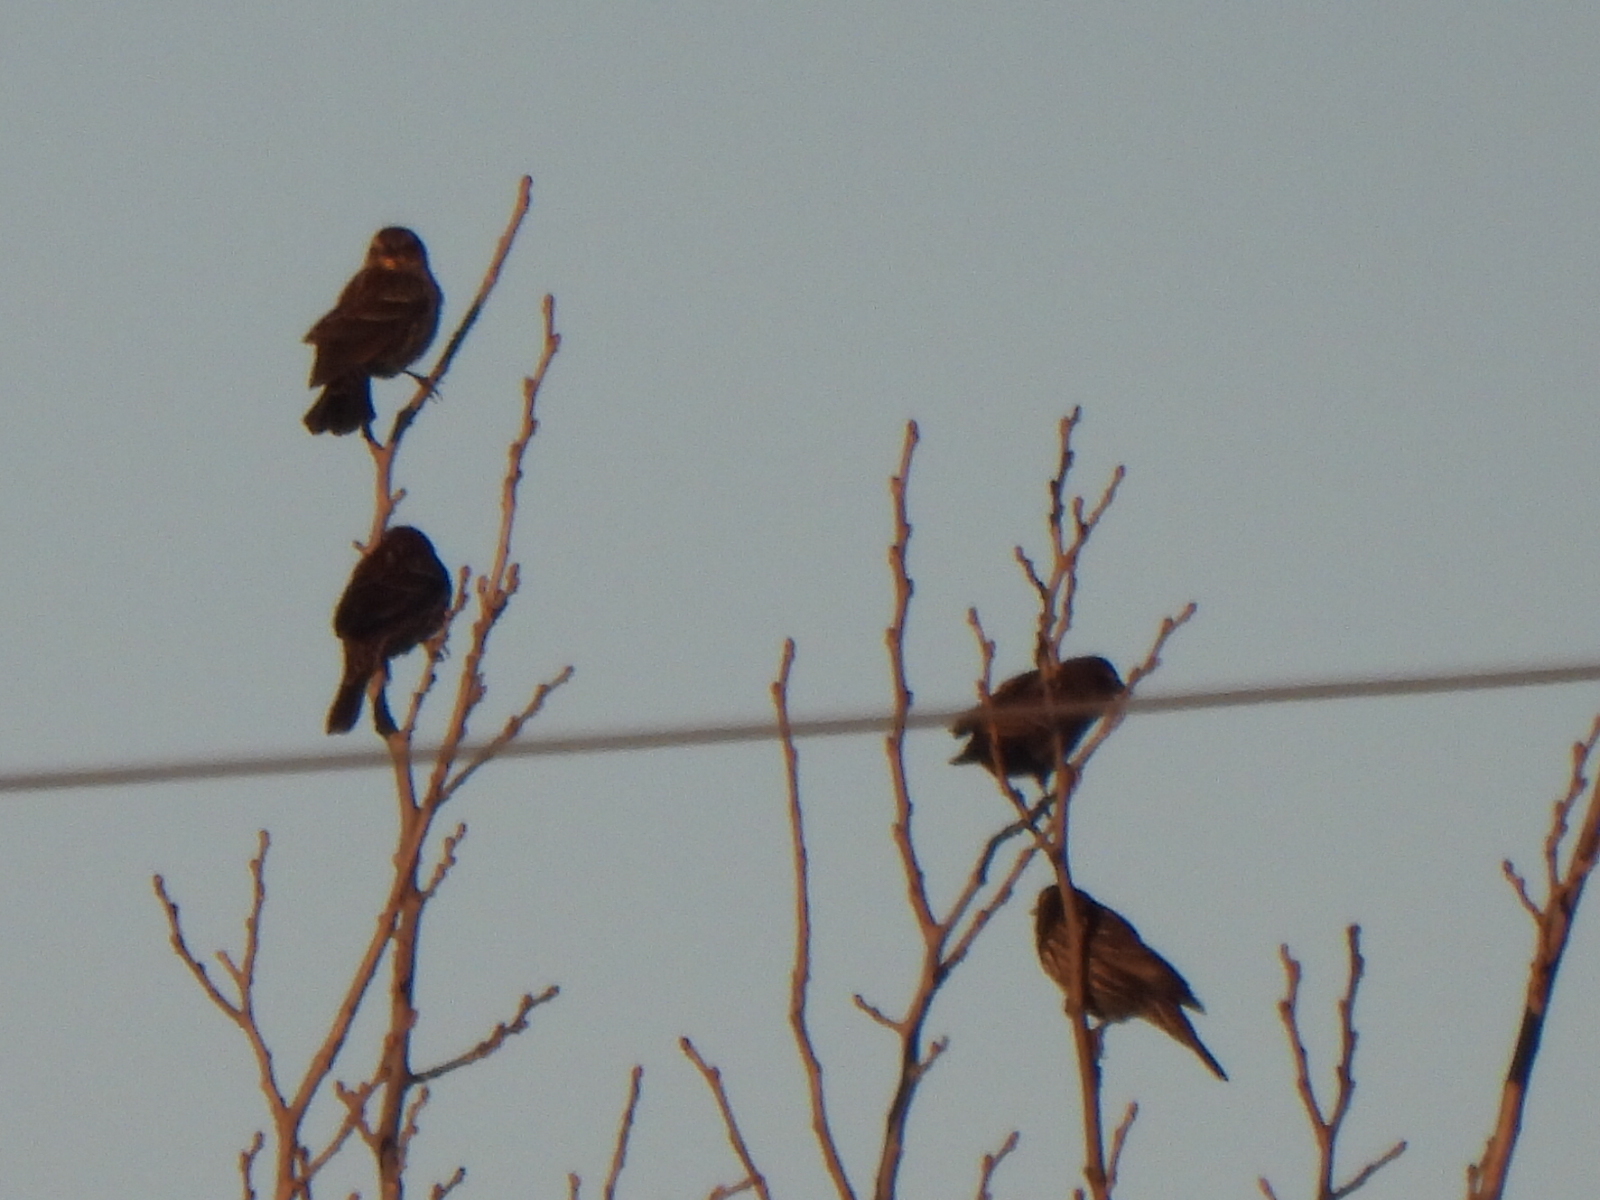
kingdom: Animalia
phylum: Chordata
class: Aves
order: Passeriformes
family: Icteridae
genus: Agelaius
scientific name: Agelaius phoeniceus
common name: Red-winged blackbird
